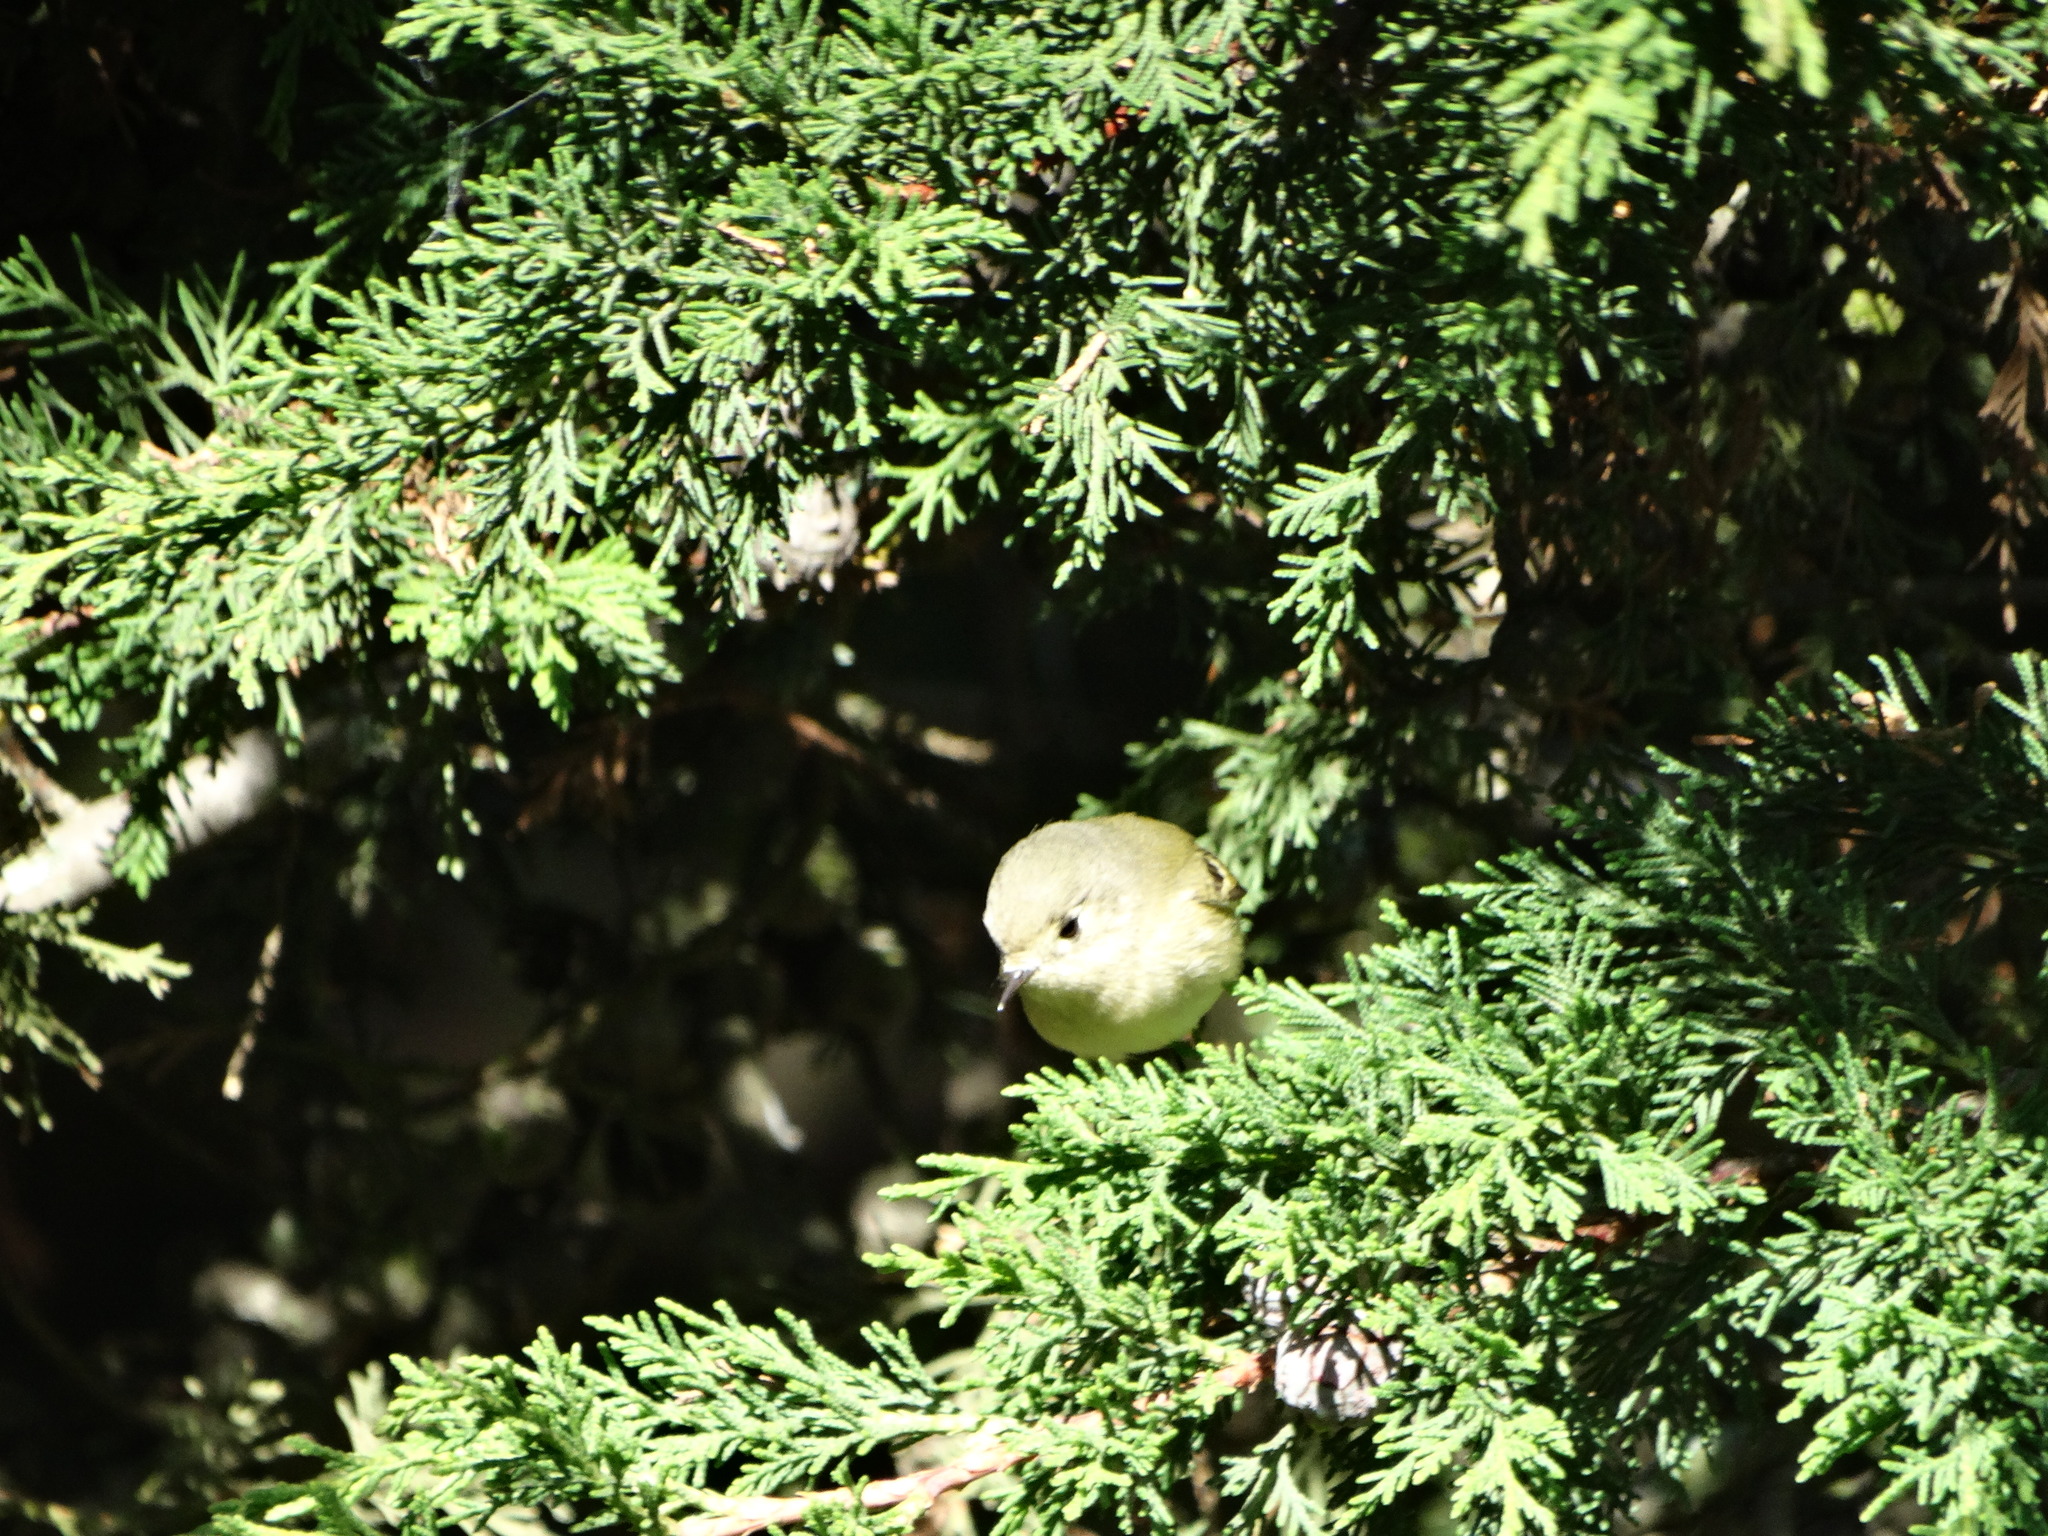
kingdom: Animalia
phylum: Chordata
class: Aves
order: Passeriformes
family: Regulidae
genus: Regulus
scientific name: Regulus calendula
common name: Ruby-crowned kinglet
